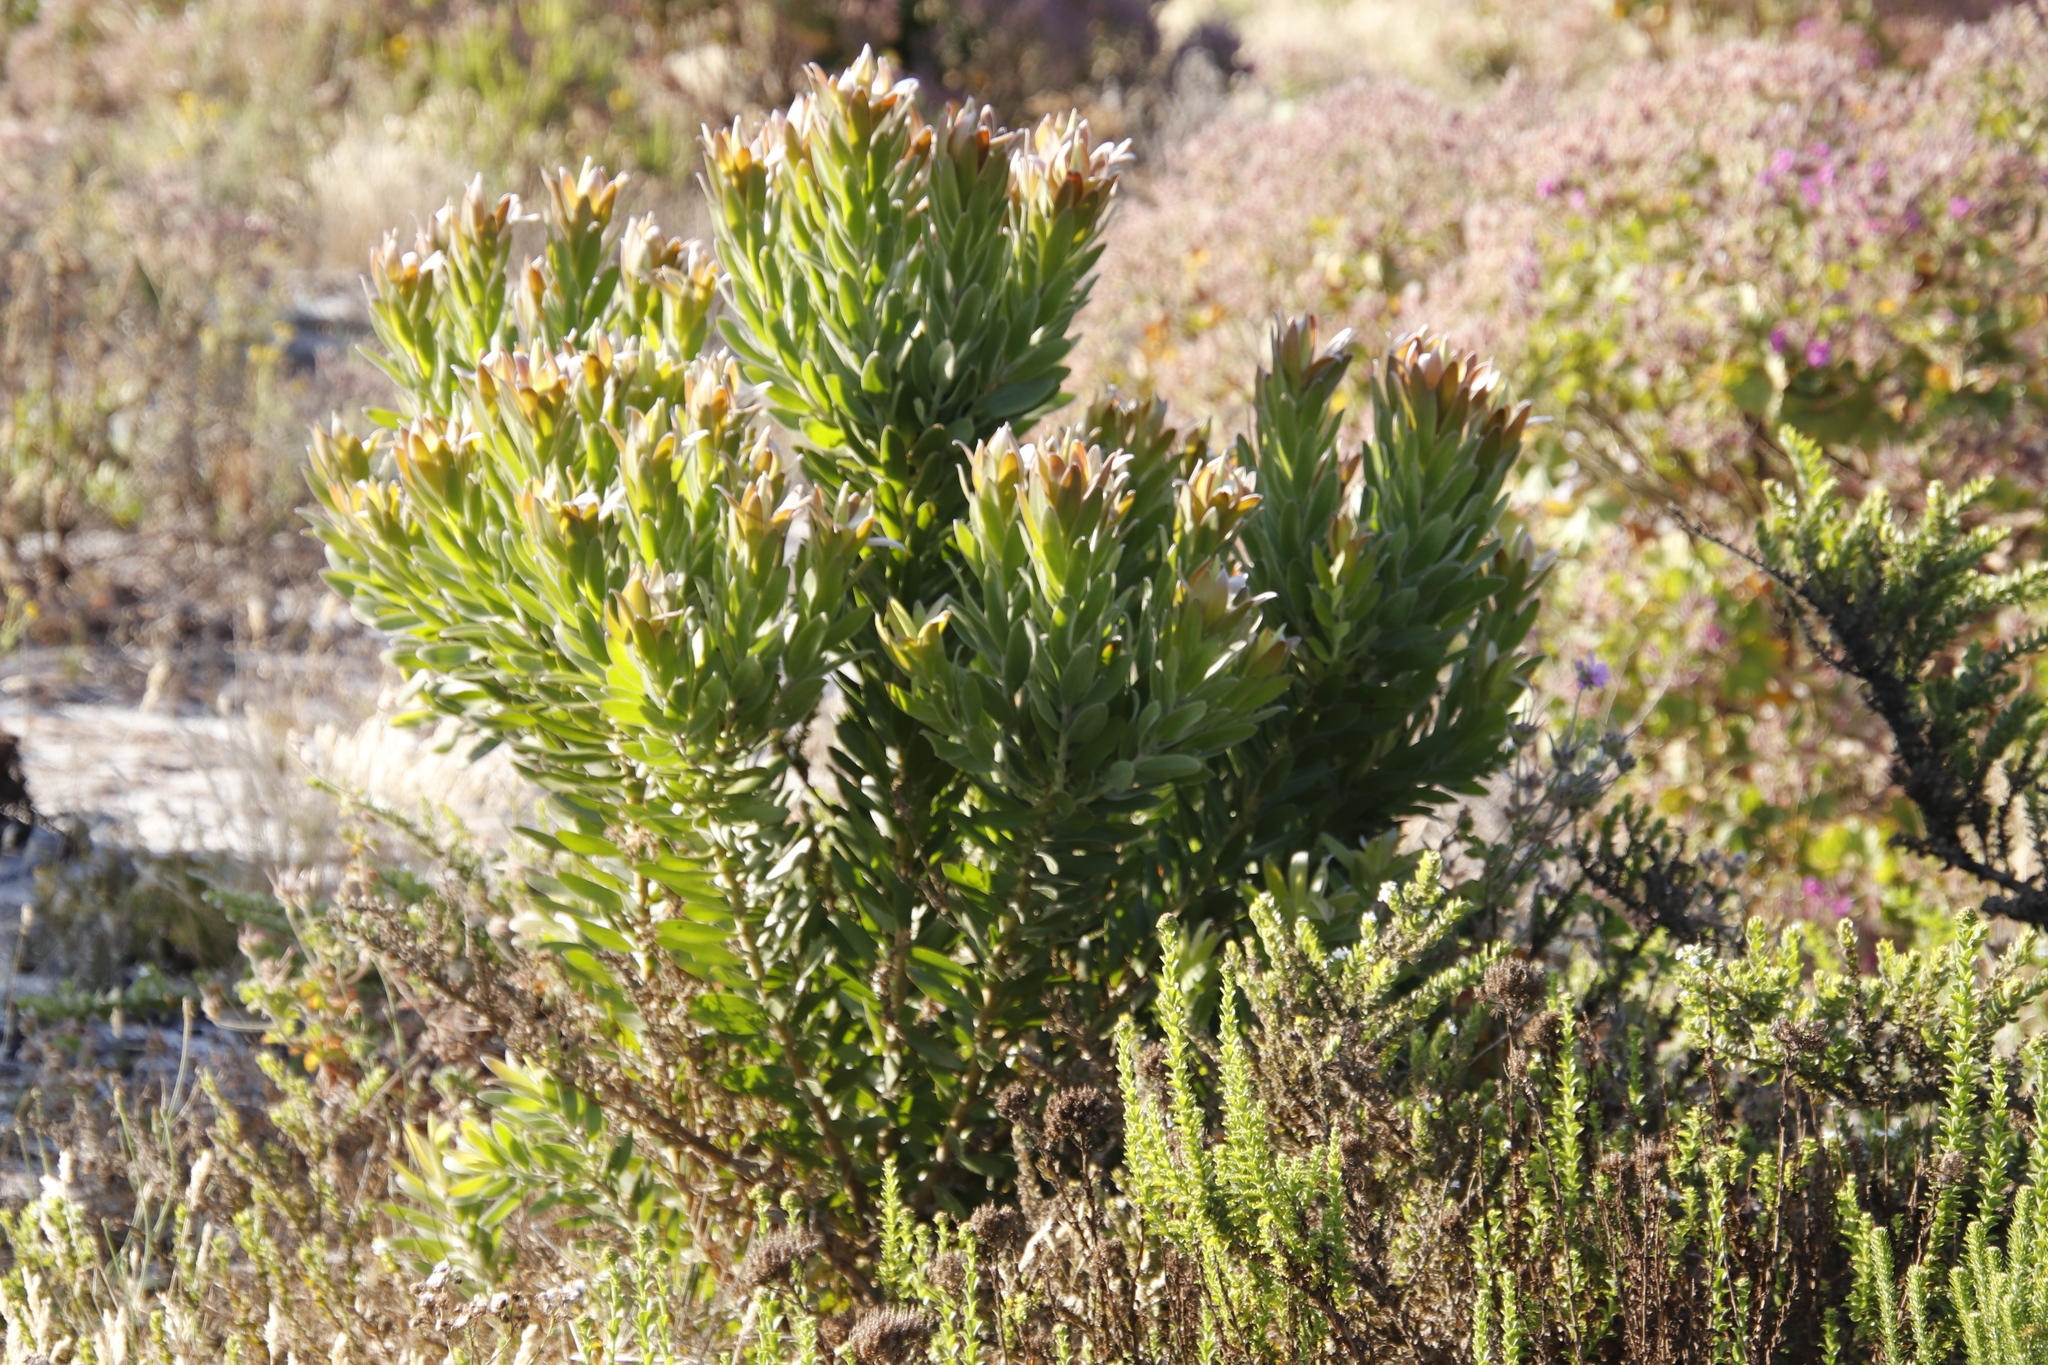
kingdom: Plantae
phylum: Tracheophyta
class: Magnoliopsida
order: Proteales
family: Proteaceae
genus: Leucadendron
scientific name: Leucadendron laureolum
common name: Golden sunshinebush
